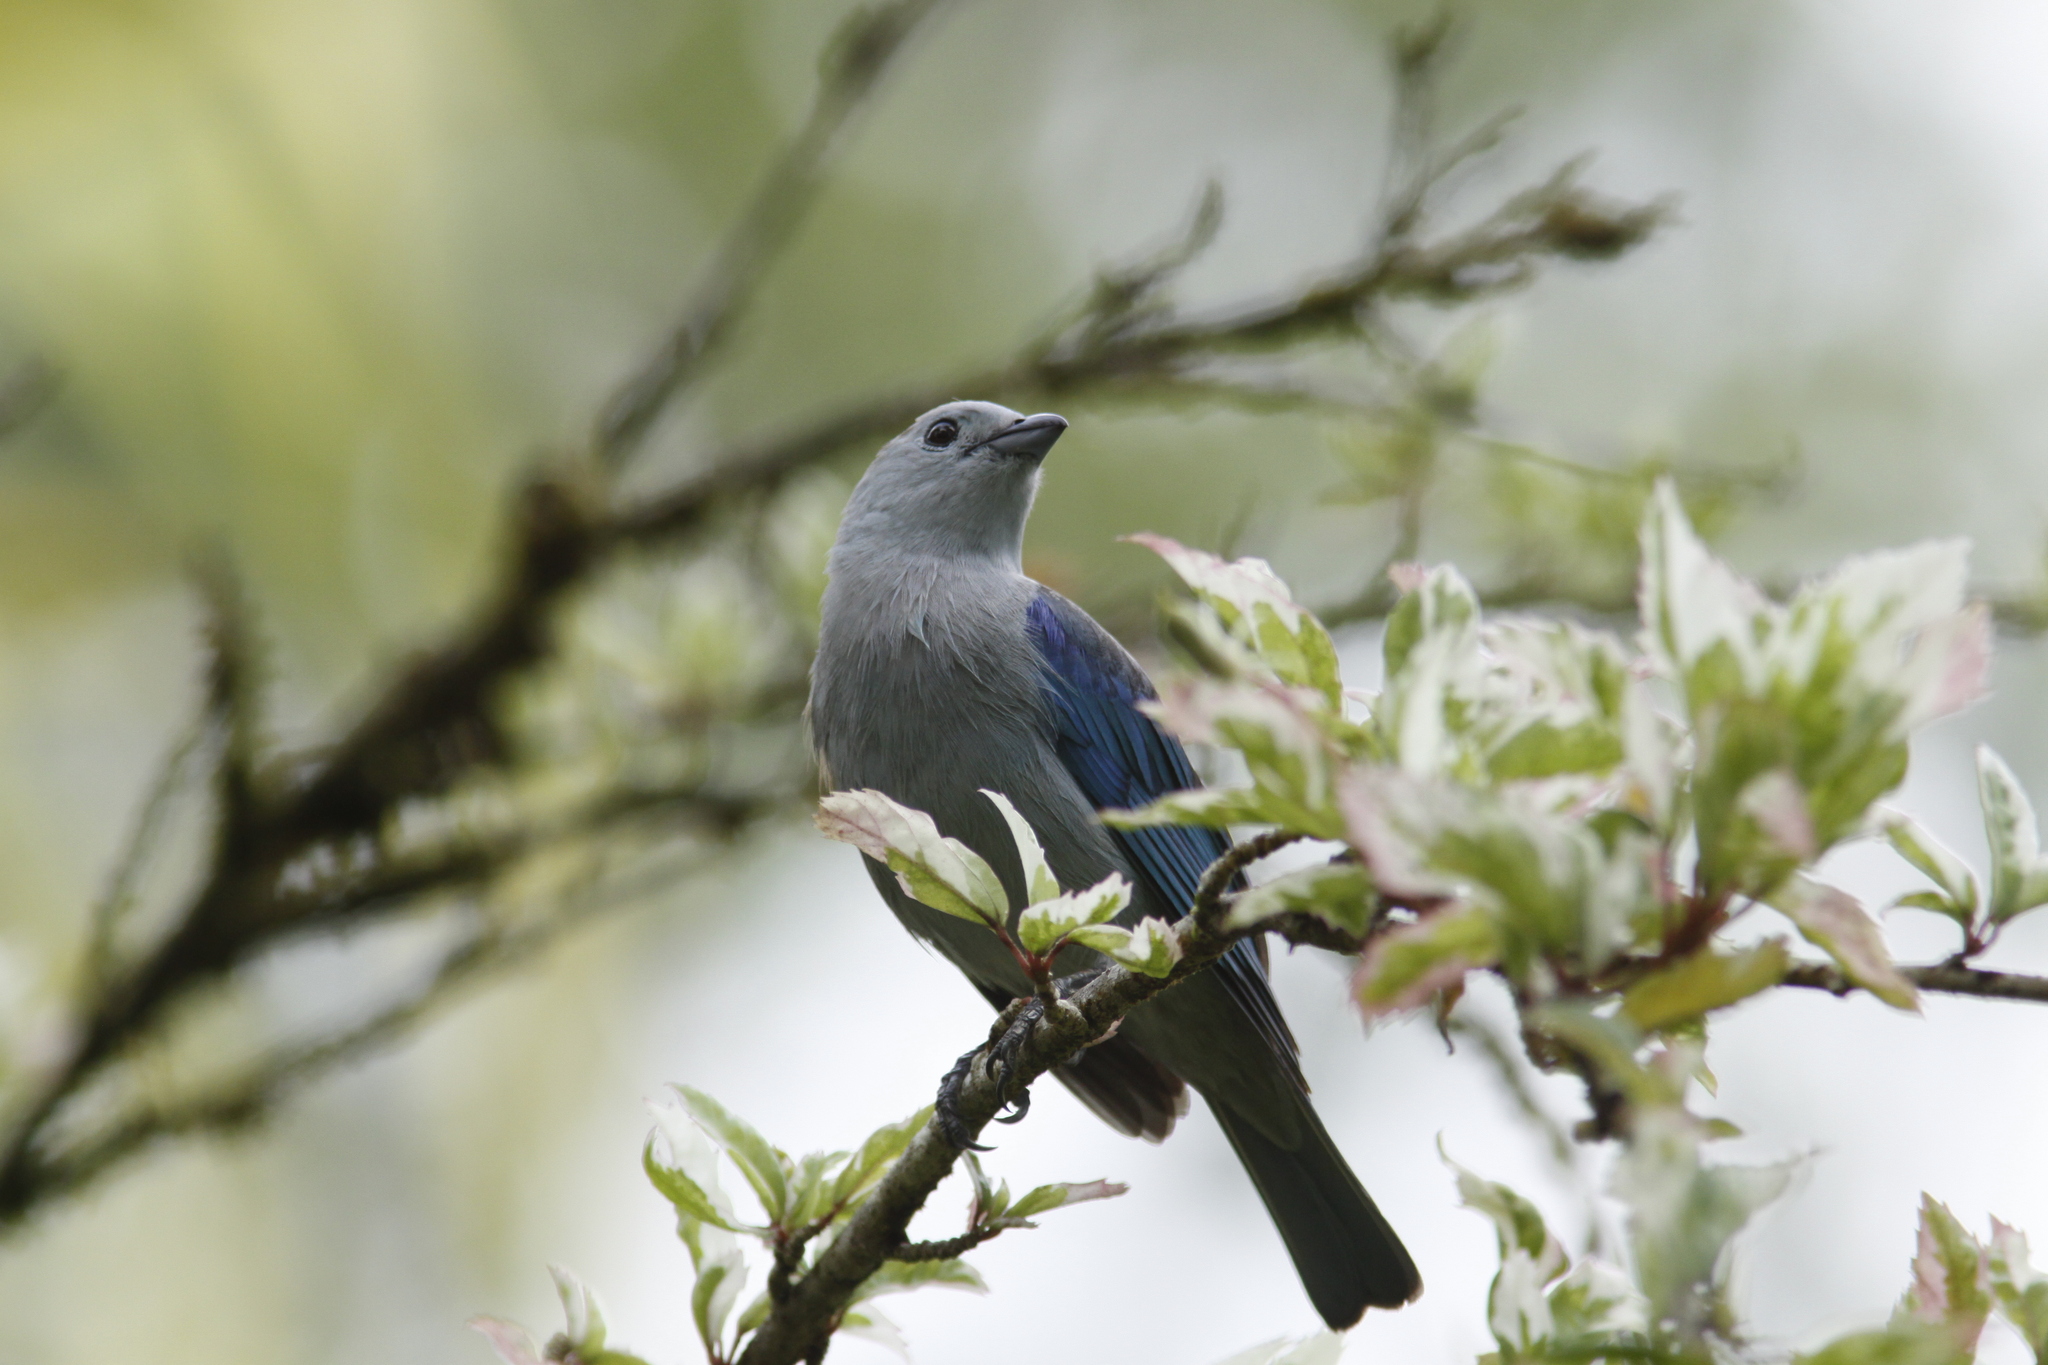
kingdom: Animalia
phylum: Chordata
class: Aves
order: Passeriformes
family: Thraupidae
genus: Thraupis
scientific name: Thraupis episcopus
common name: Blue-grey tanager
